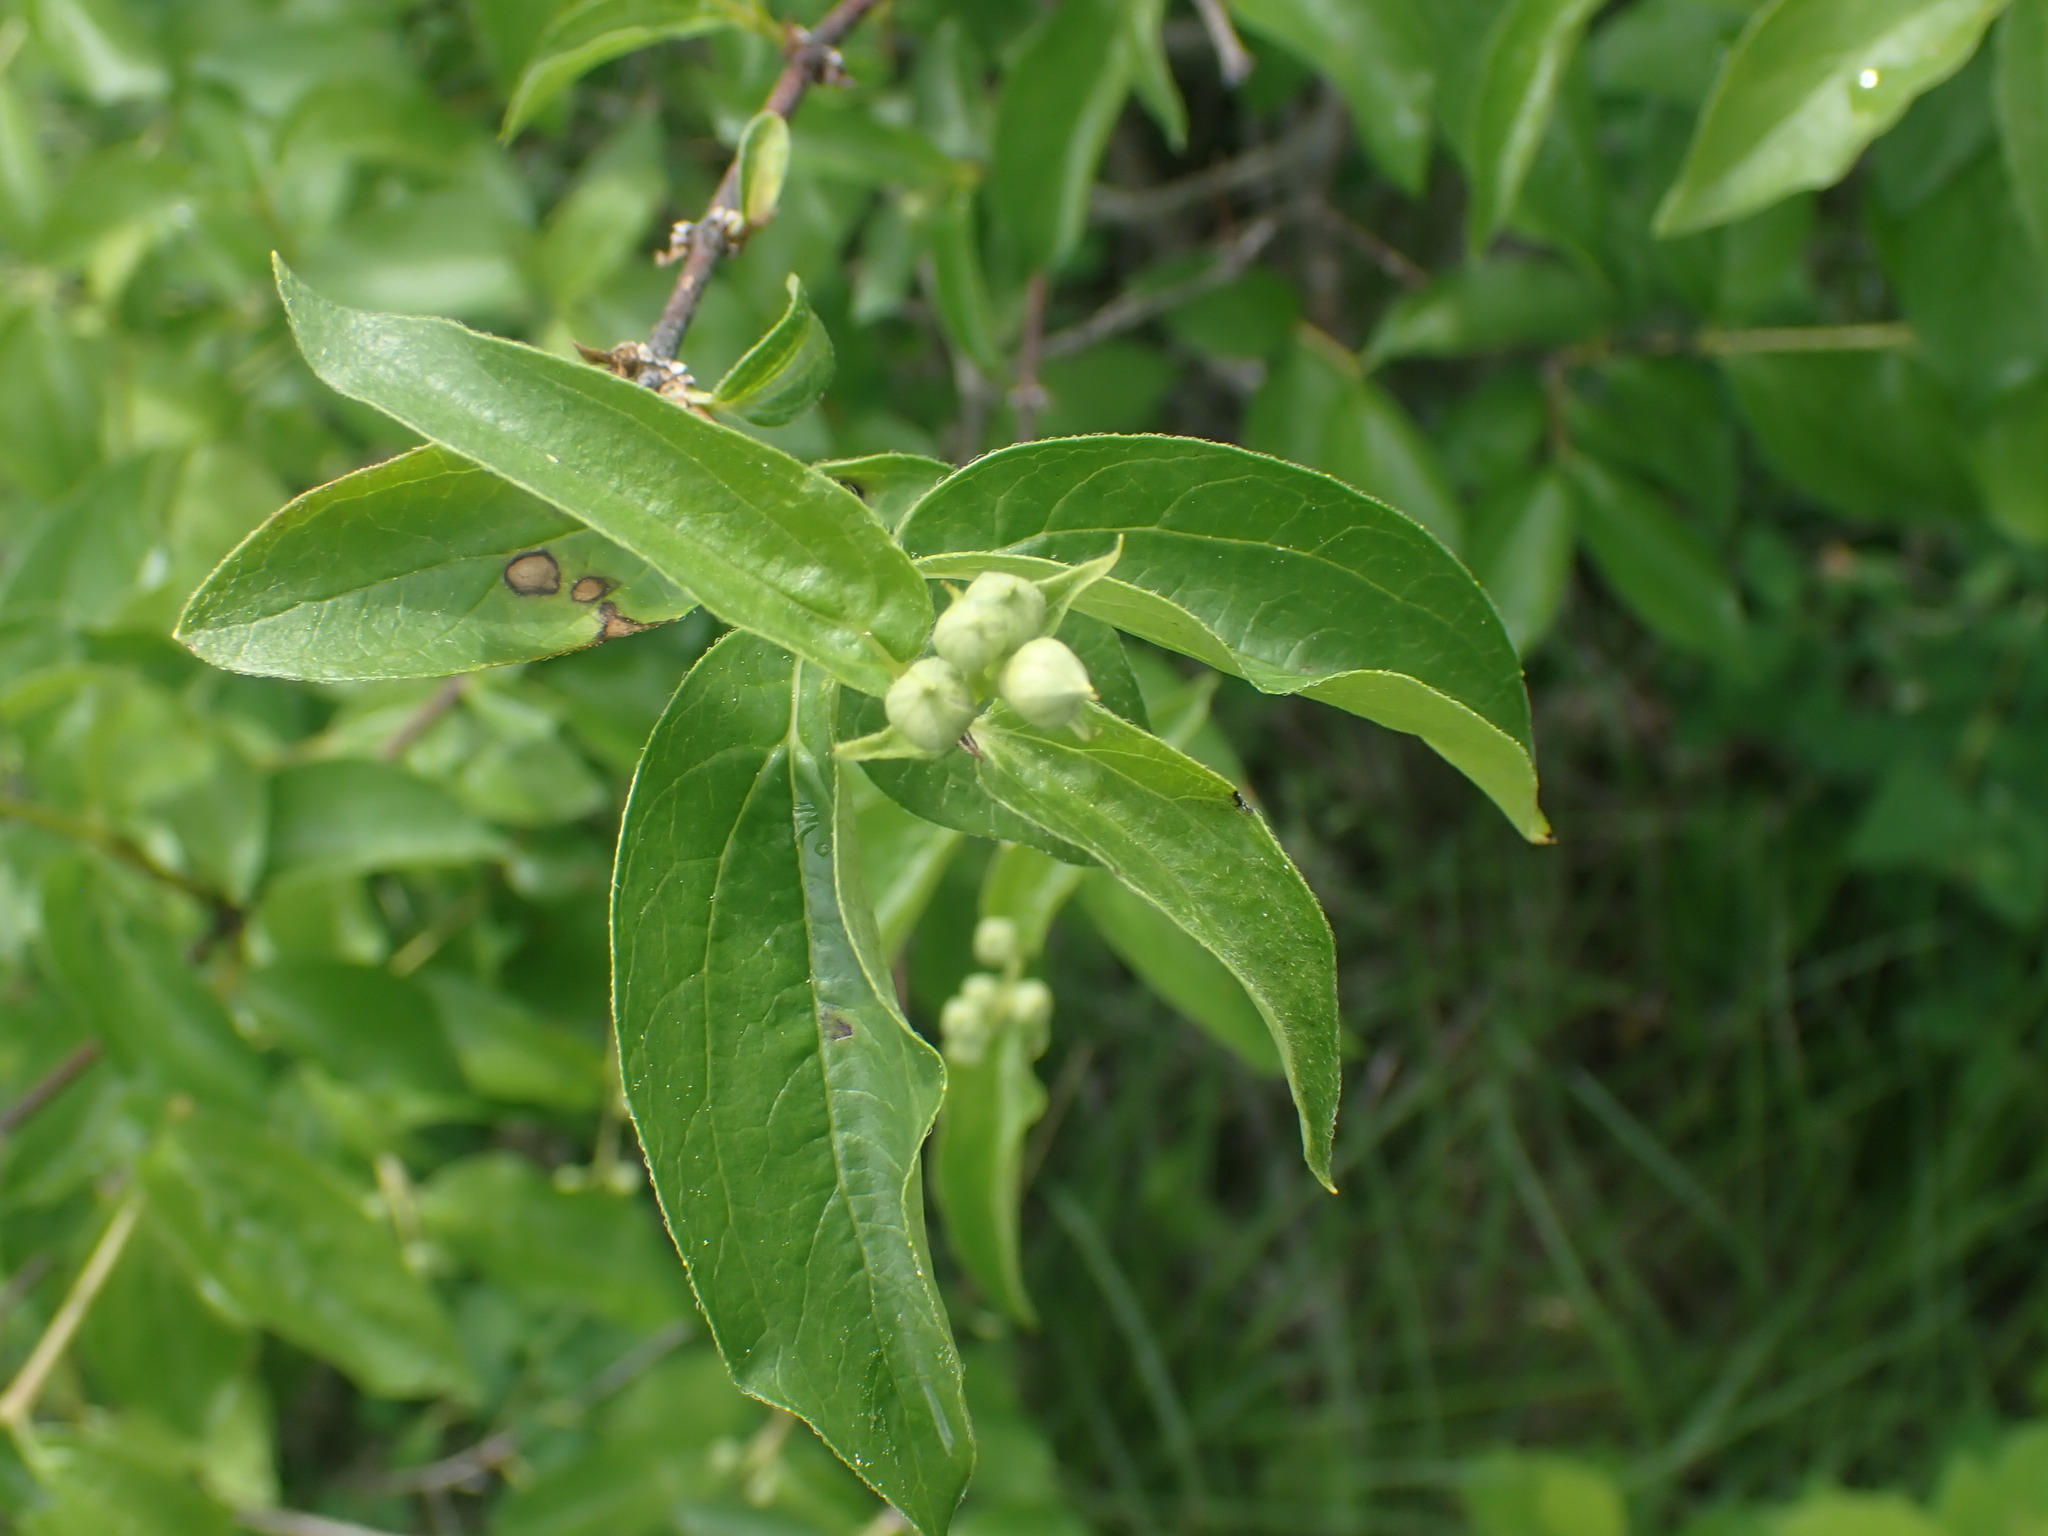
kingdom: Plantae
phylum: Tracheophyta
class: Magnoliopsida
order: Cornales
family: Hydrangeaceae
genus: Philadelphus
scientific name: Philadelphus lewisii
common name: Lewis's mock orange
